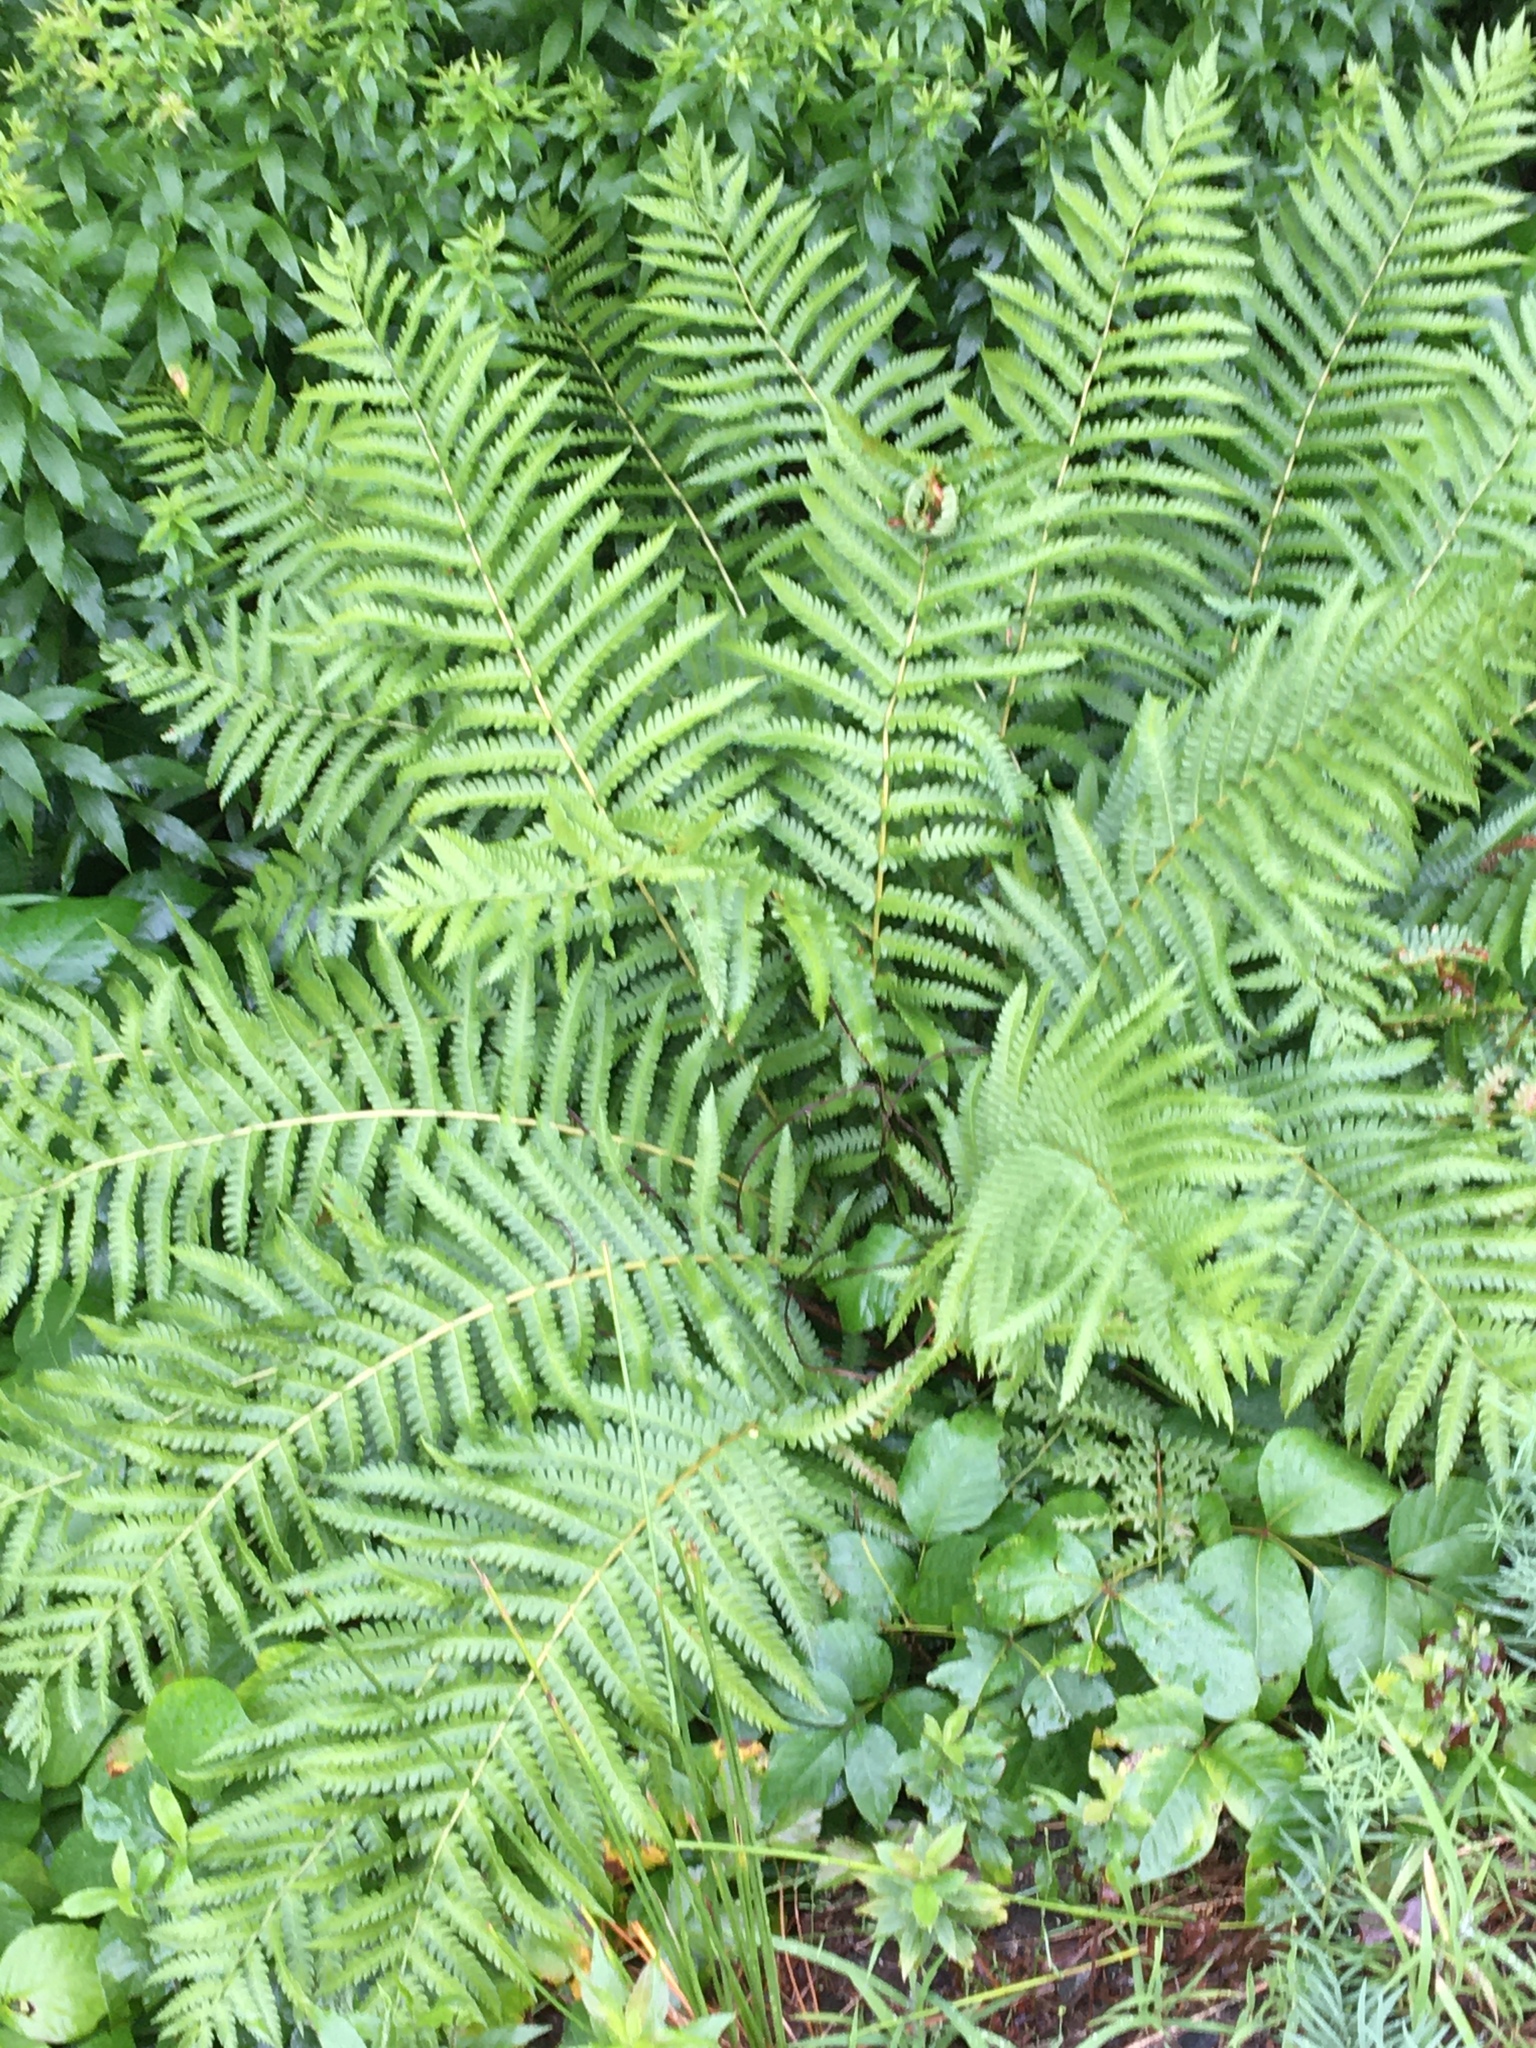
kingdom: Plantae
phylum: Tracheophyta
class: Polypodiopsida
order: Osmundales
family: Osmundaceae
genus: Osmundastrum
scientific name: Osmundastrum cinnamomeum
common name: Cinnamon fern
